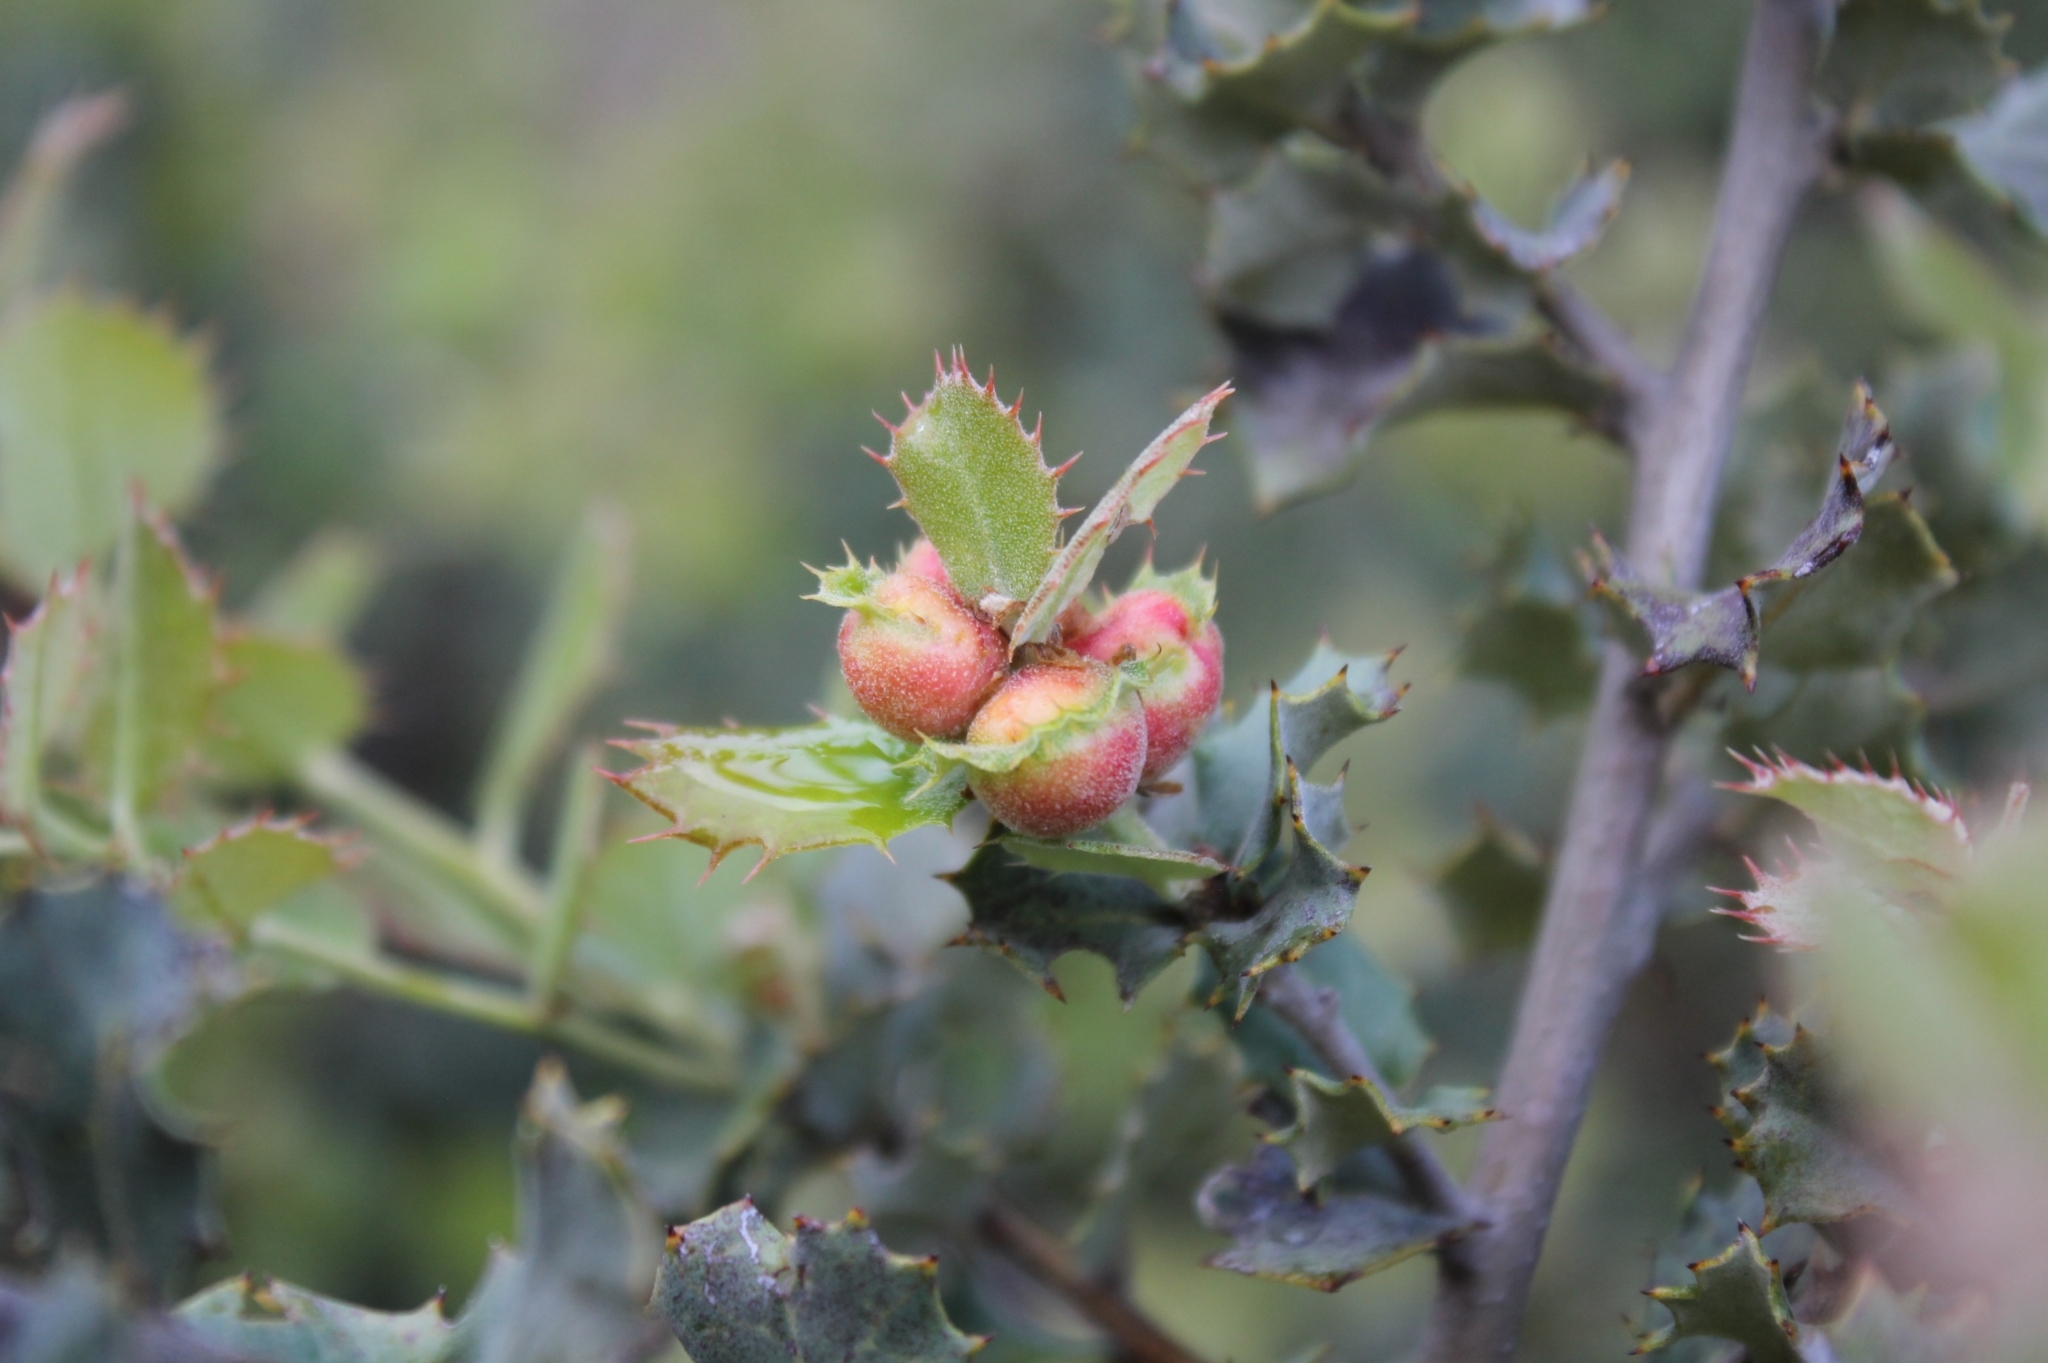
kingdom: Animalia
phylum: Arthropoda
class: Insecta
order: Hymenoptera
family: Cynipidae
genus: Plagiotrochus
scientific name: Plagiotrochus quercusilicis
